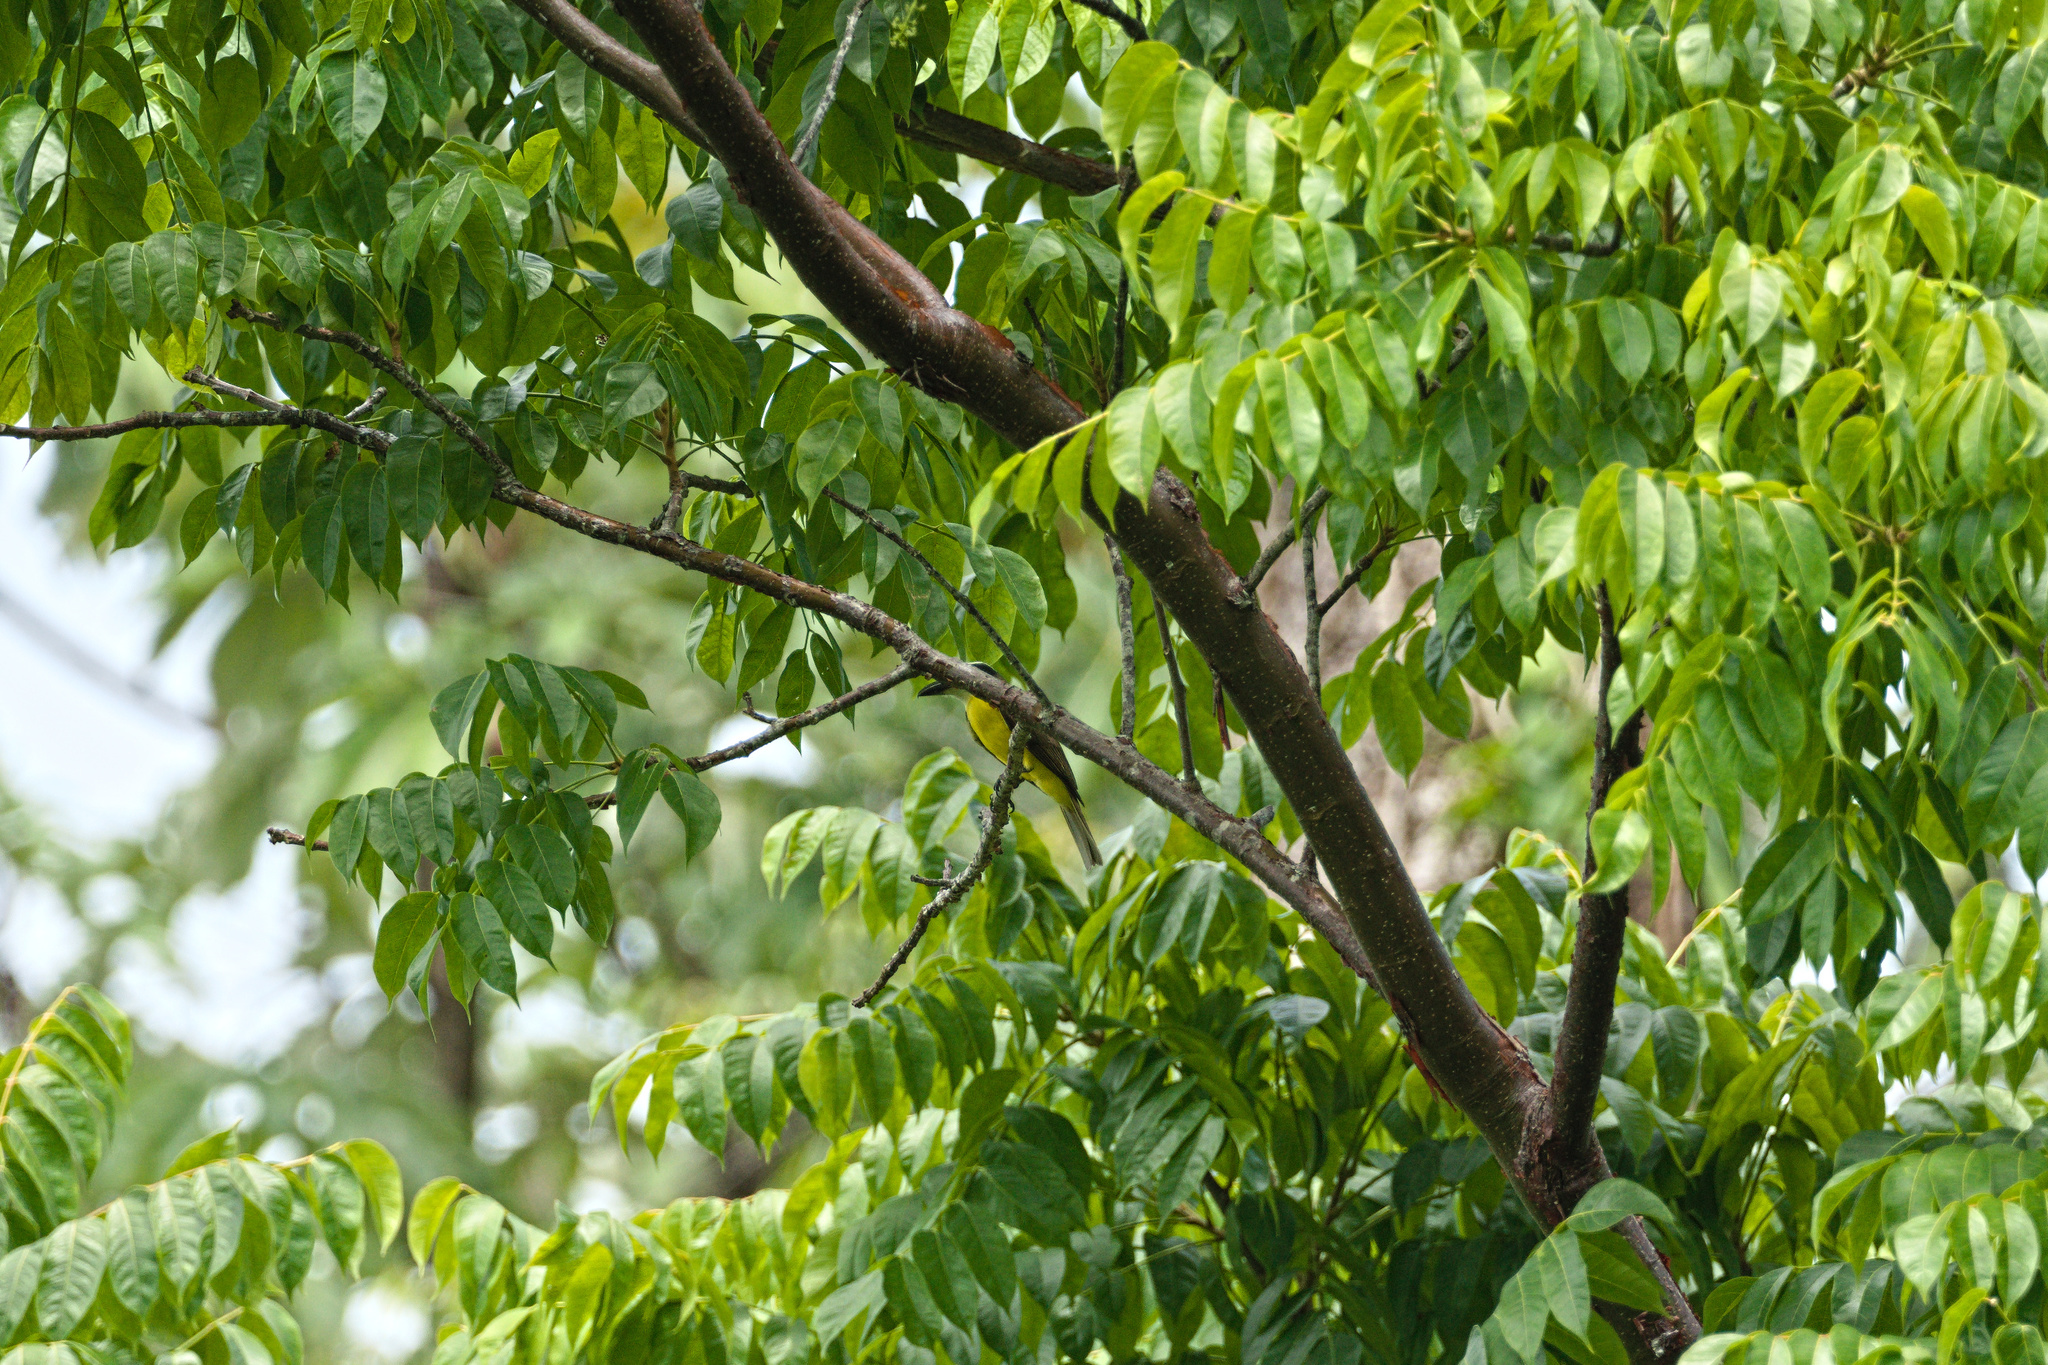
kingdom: Animalia
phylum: Chordata
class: Aves
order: Passeriformes
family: Tyrannidae
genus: Megarynchus
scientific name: Megarynchus pitangua
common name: Boat-billed flycatcher
